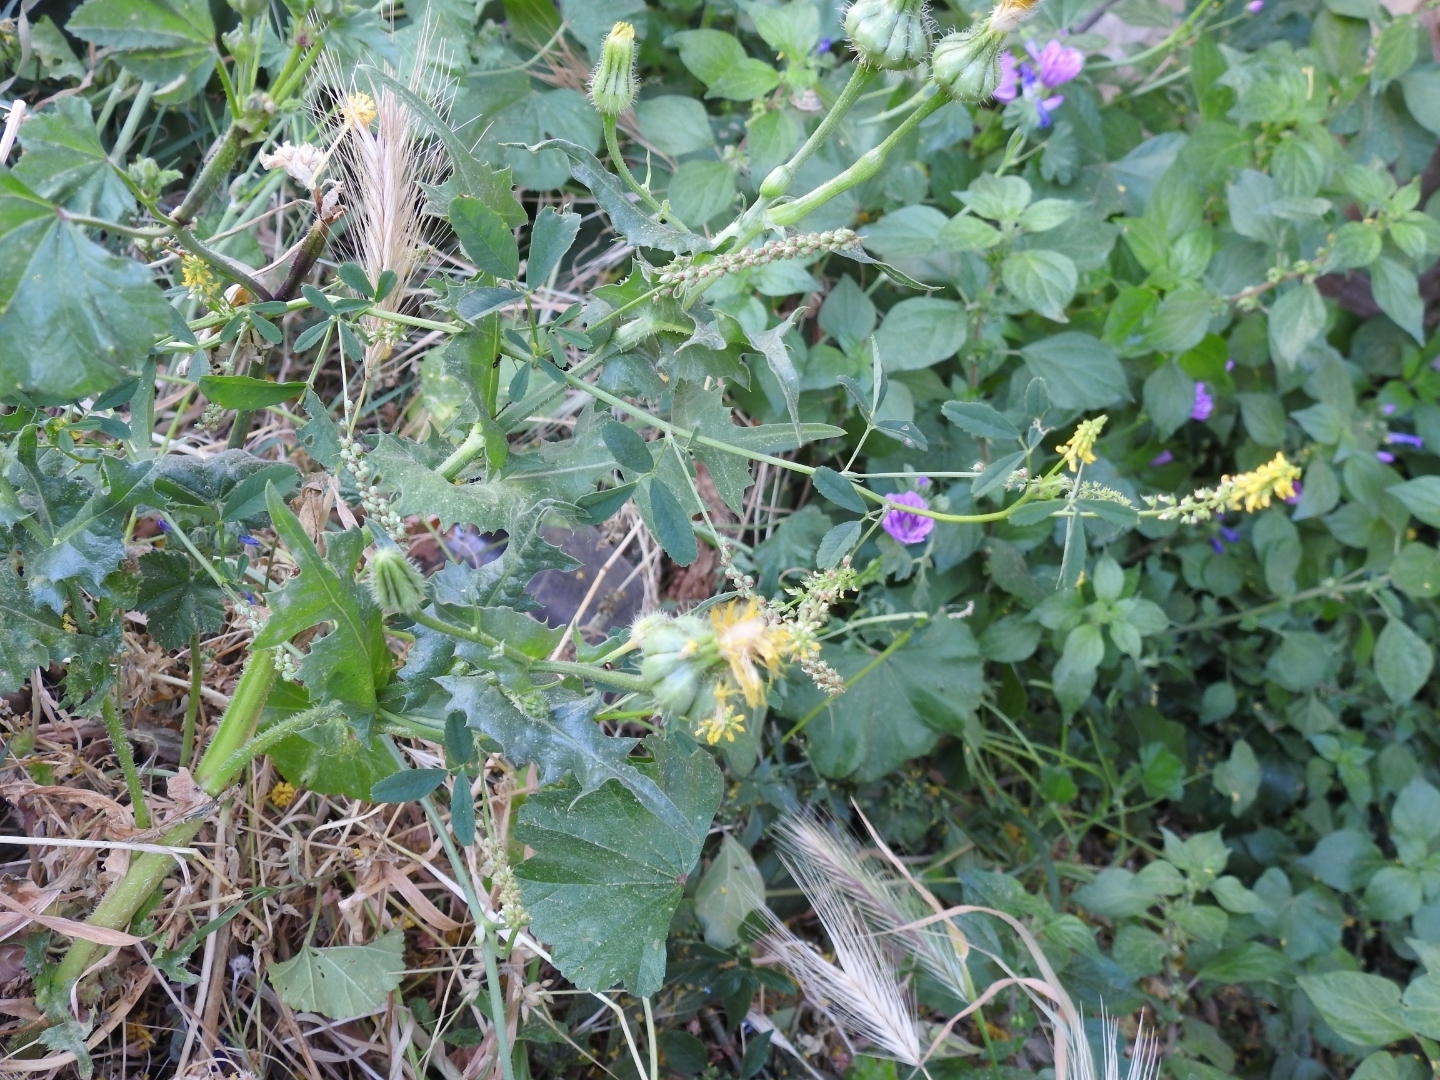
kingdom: Plantae
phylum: Tracheophyta
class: Magnoliopsida
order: Fabales
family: Fabaceae
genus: Melilotus
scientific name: Melilotus indicus
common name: Small melilot
